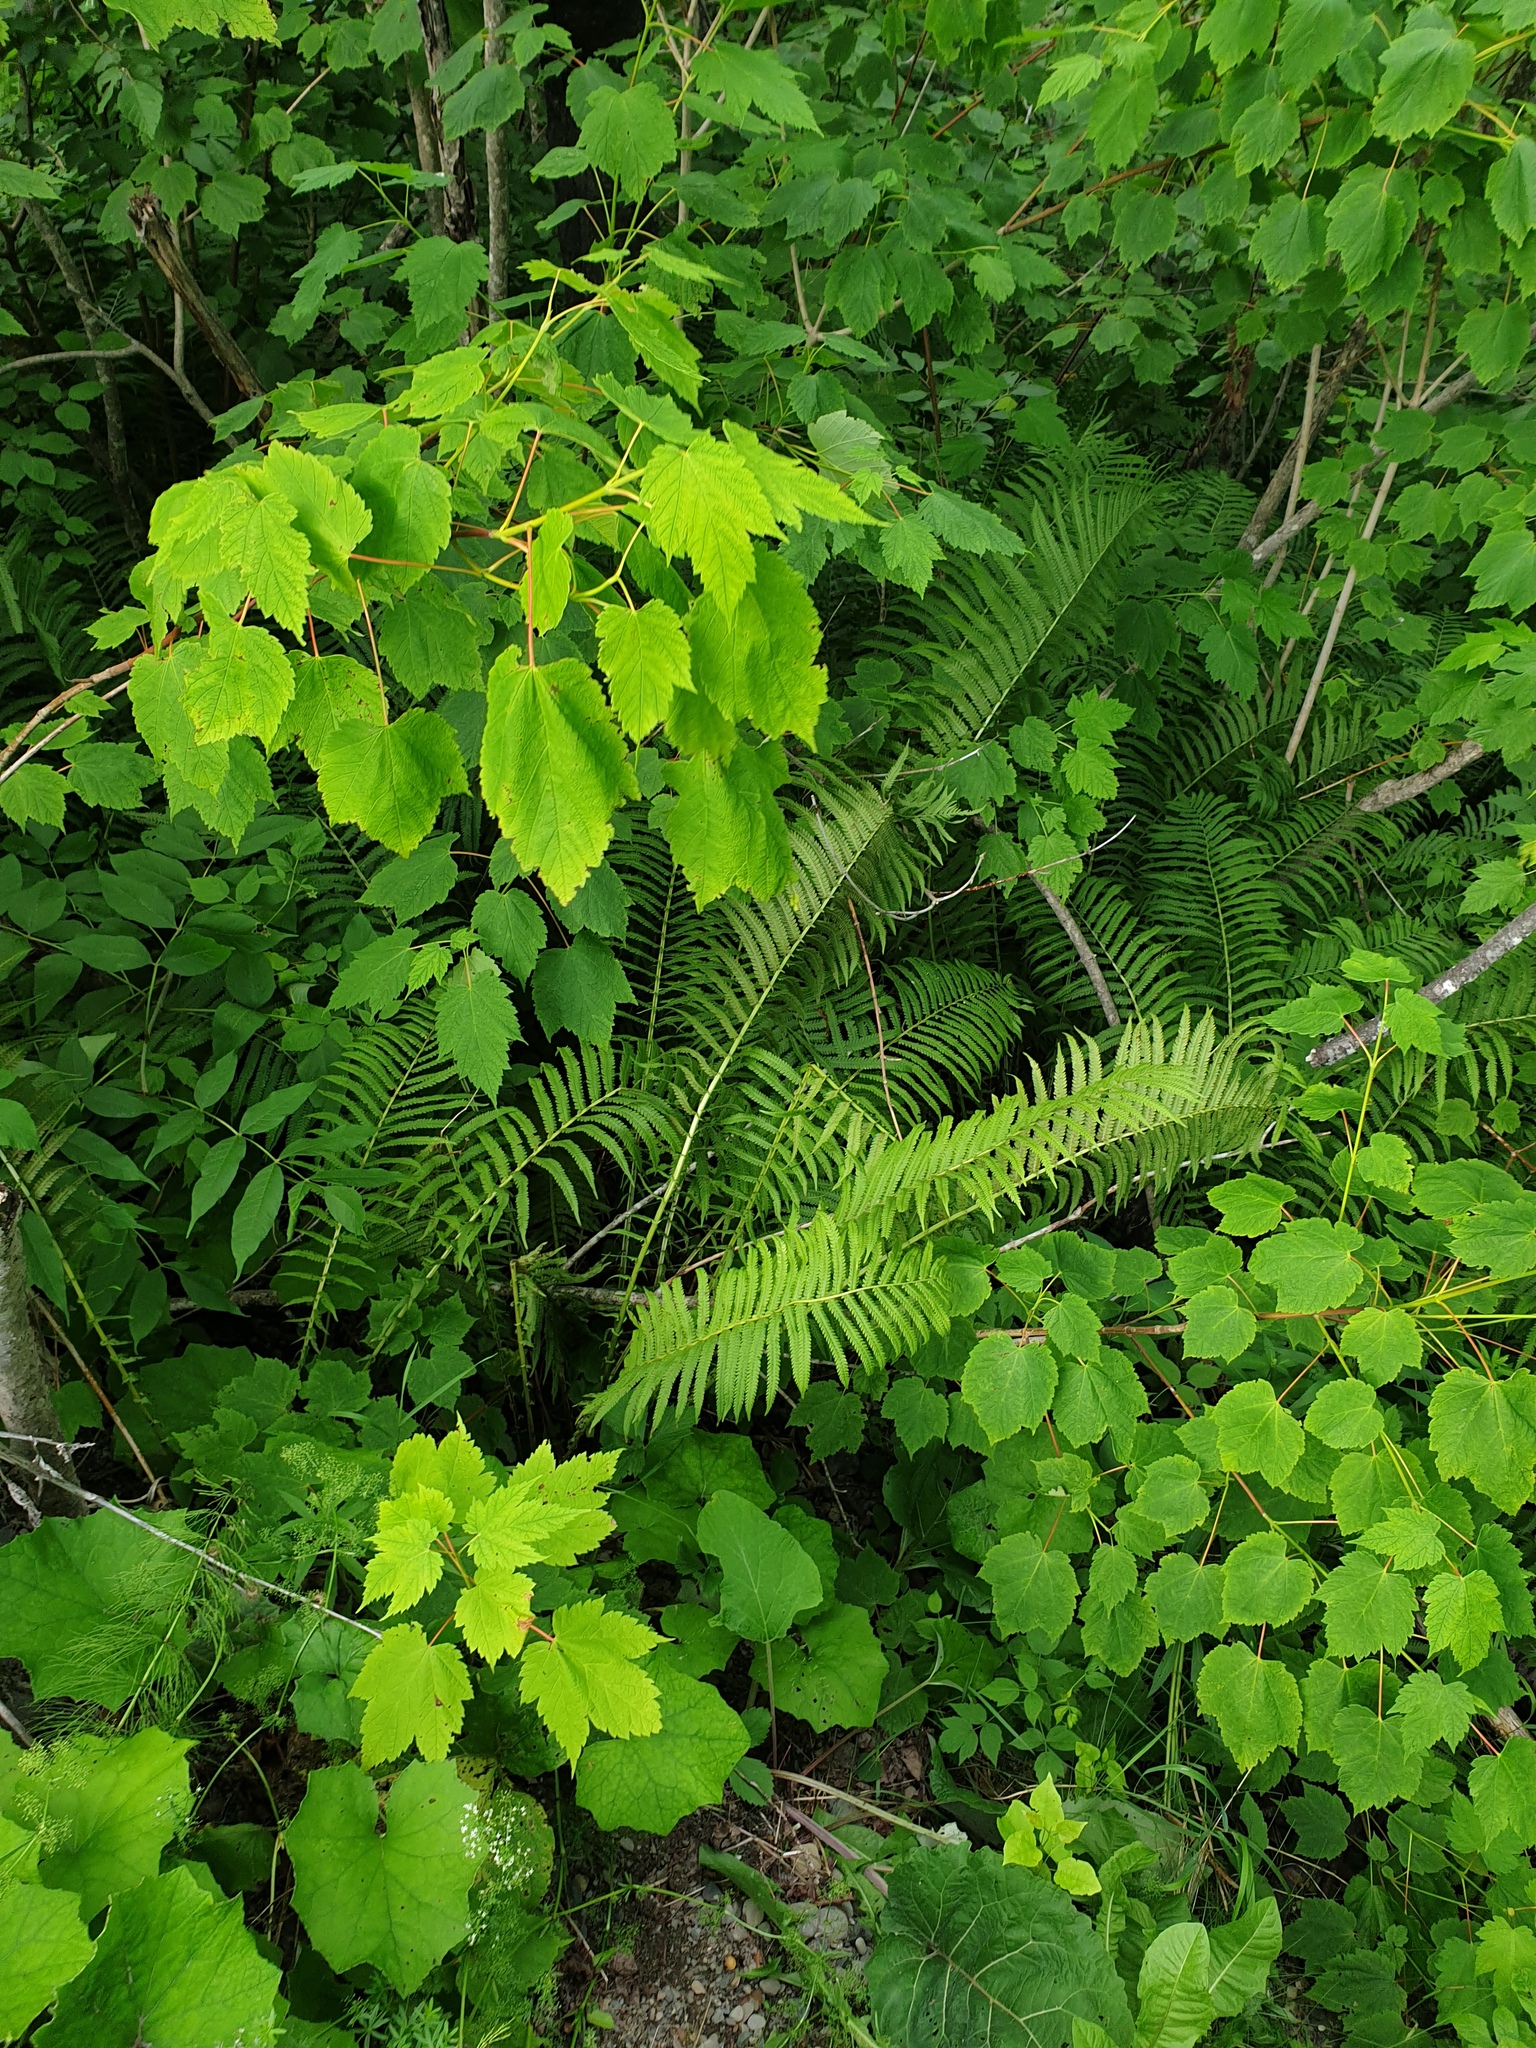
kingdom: Plantae
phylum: Tracheophyta
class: Polypodiopsida
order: Polypodiales
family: Onocleaceae
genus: Matteuccia
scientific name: Matteuccia struthiopteris
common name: Ostrich fern
